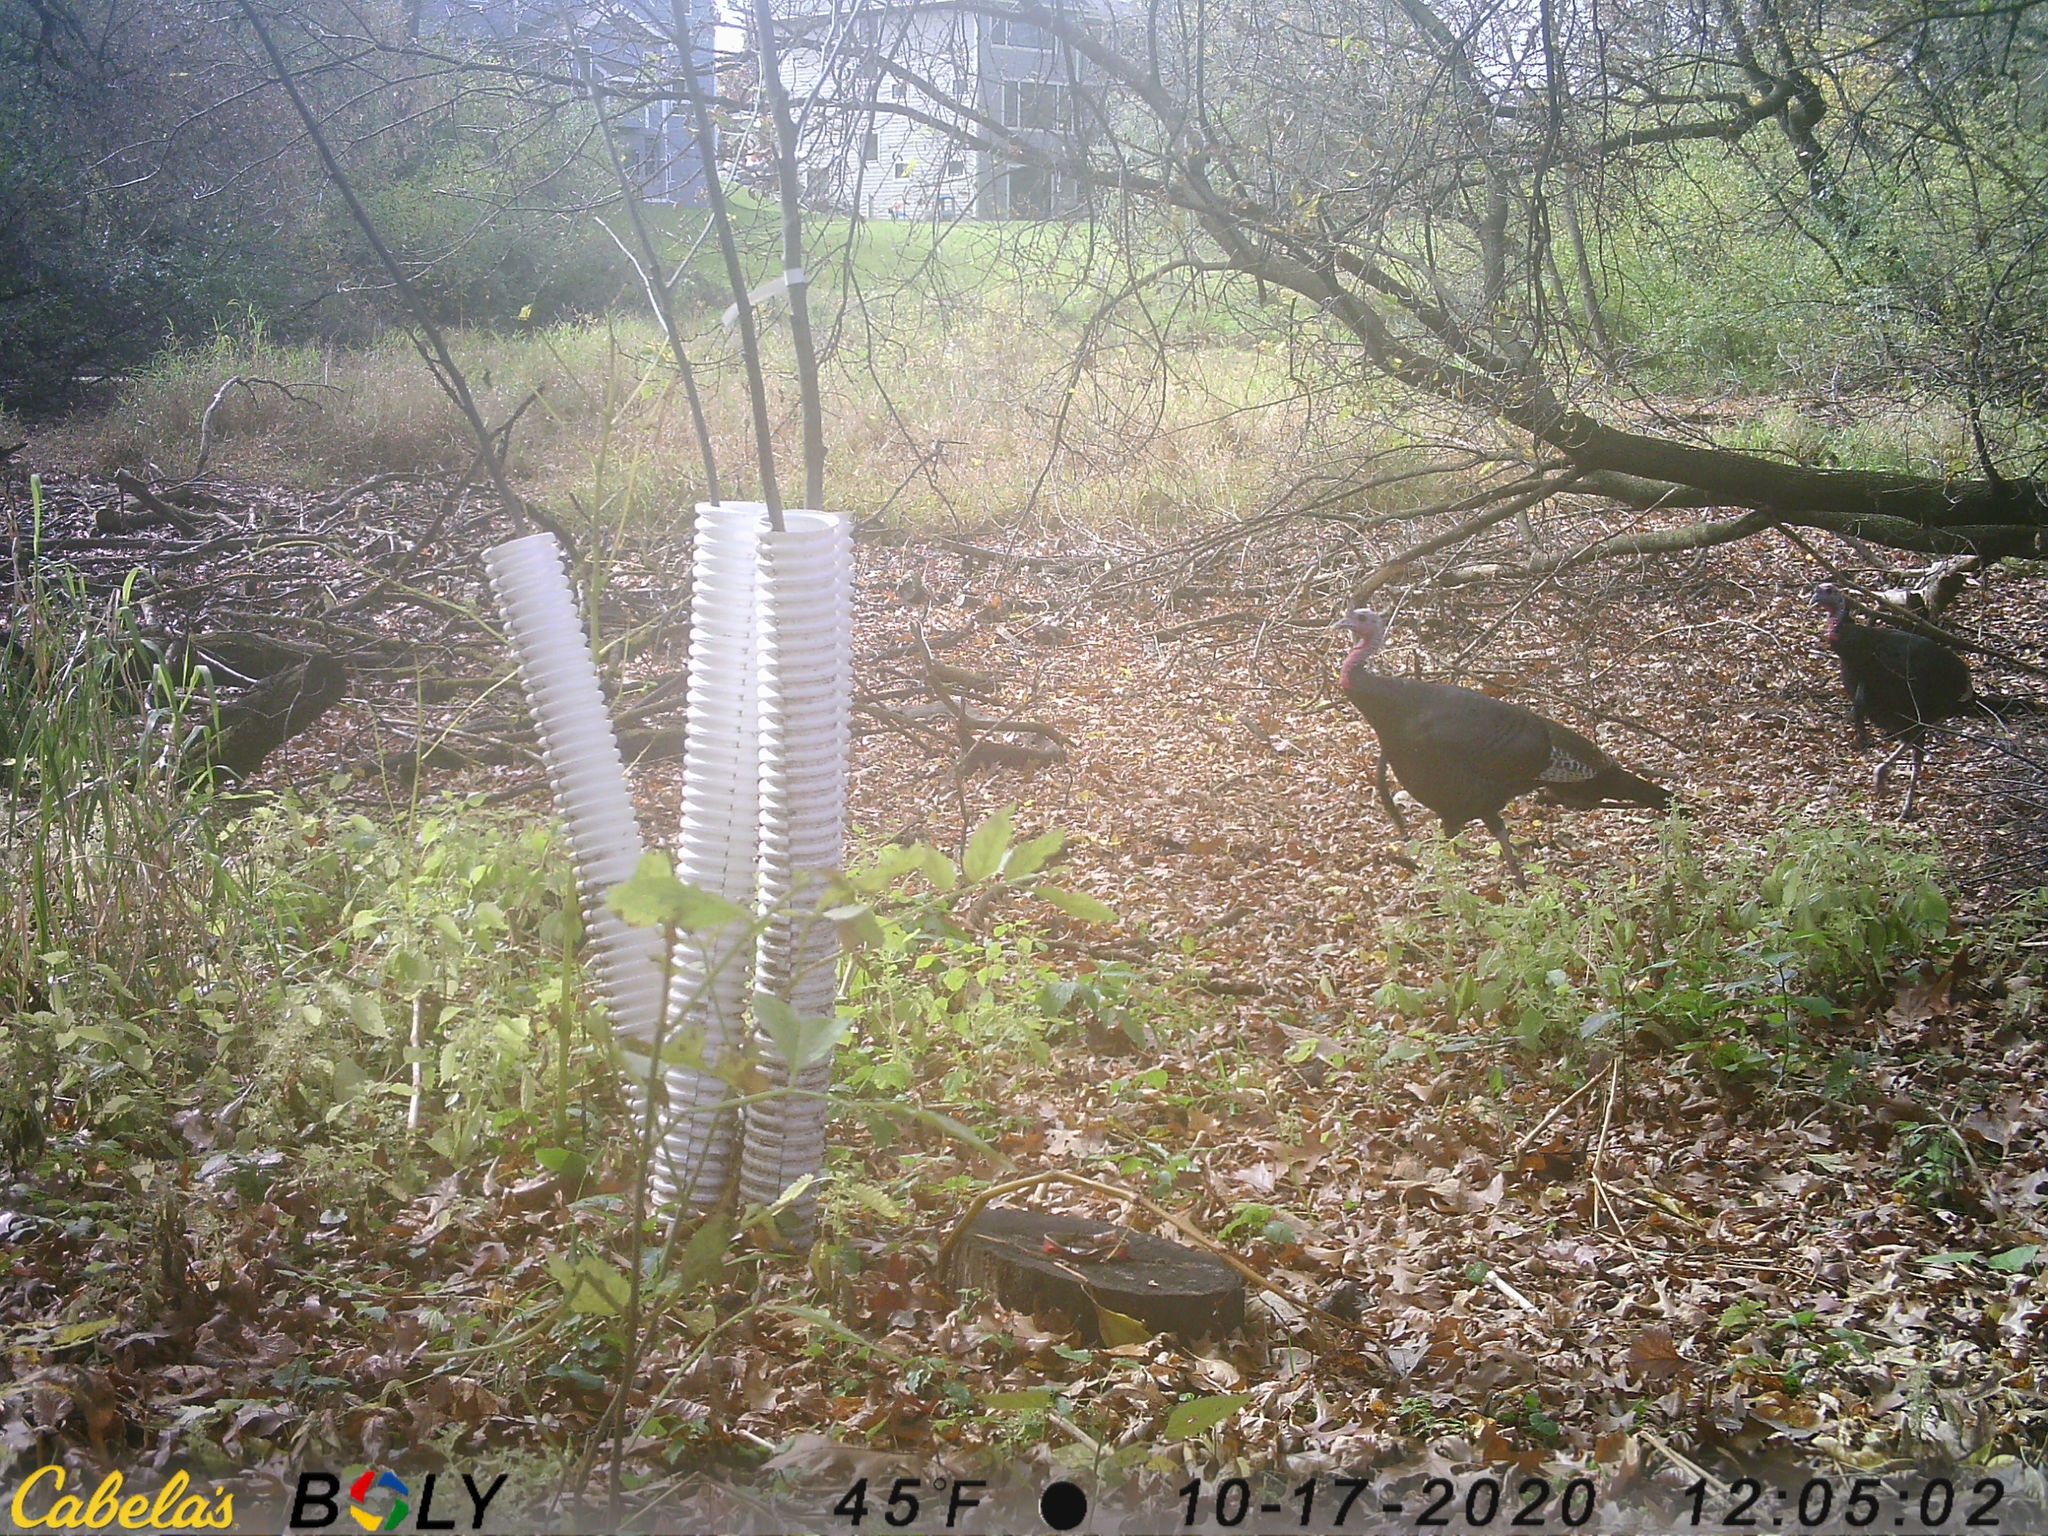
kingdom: Animalia
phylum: Chordata
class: Aves
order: Galliformes
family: Phasianidae
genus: Meleagris
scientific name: Meleagris gallopavo
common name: Wild turkey
